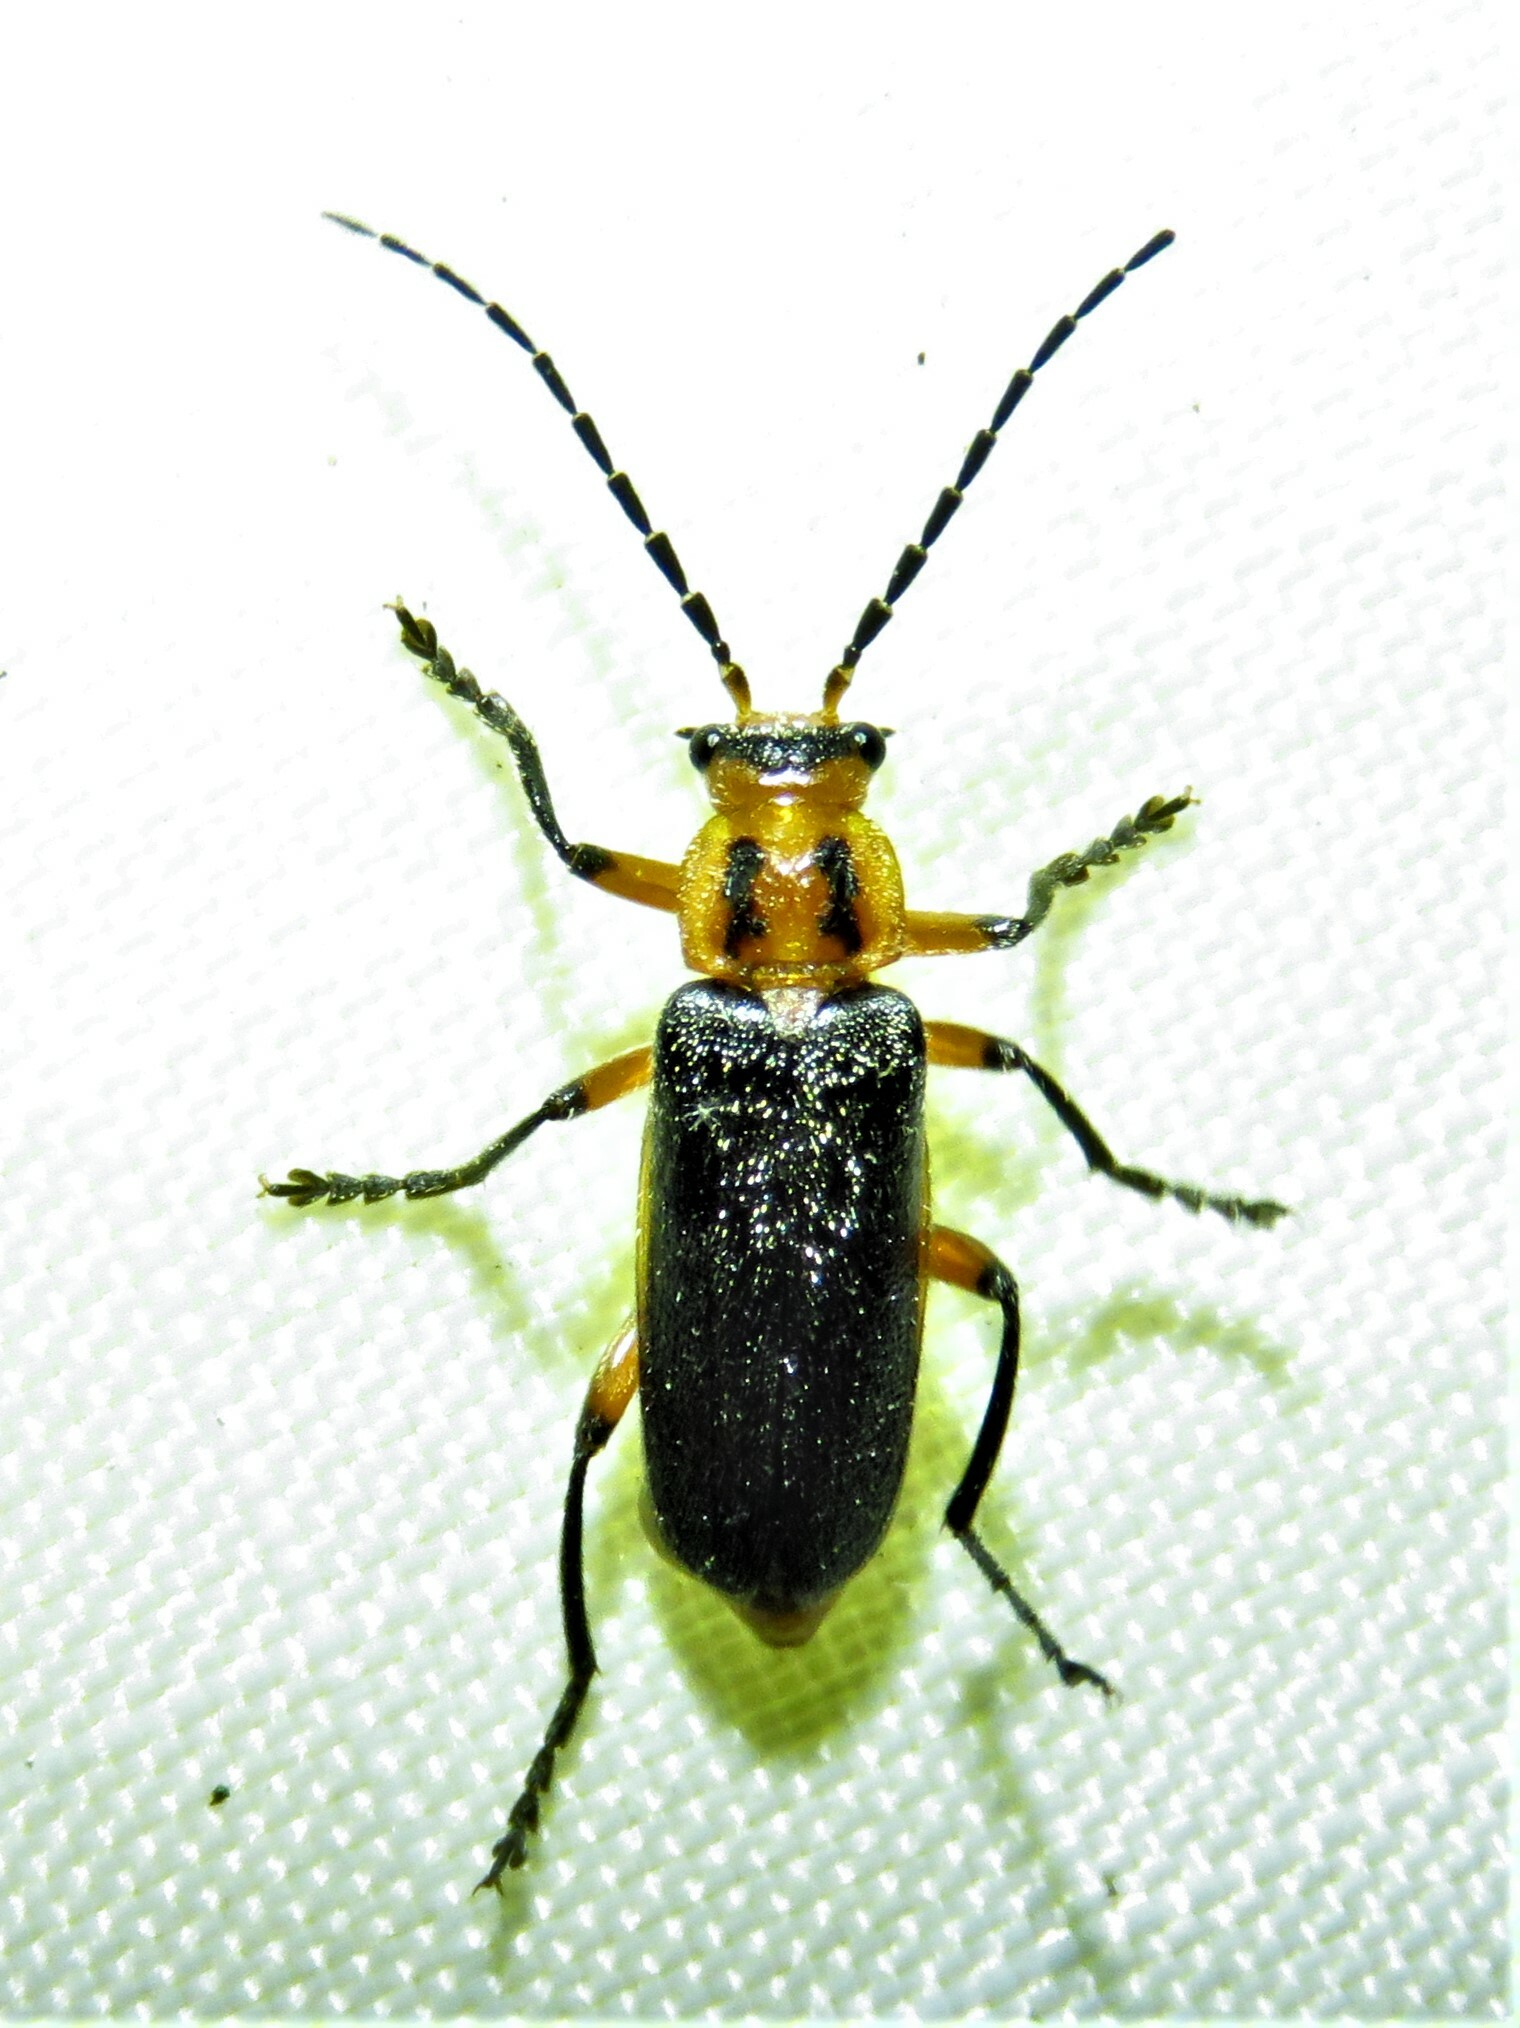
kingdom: Animalia
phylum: Arthropoda
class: Insecta
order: Coleoptera
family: Cantharidae
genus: Atalantycha
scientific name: Atalantycha bilineata
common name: Two-lined leatherwing
